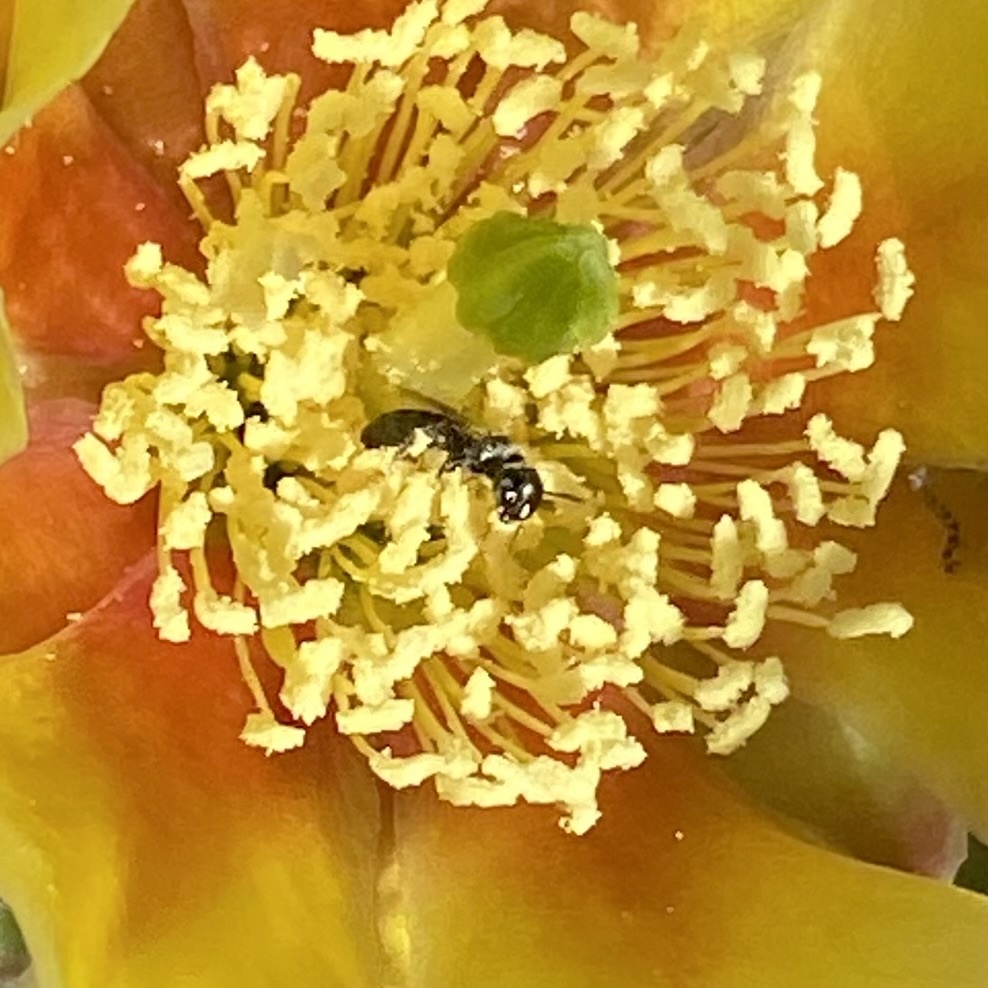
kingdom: Animalia
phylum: Arthropoda
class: Insecta
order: Hymenoptera
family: Apidae
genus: Zadontomerus
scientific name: Zadontomerus
